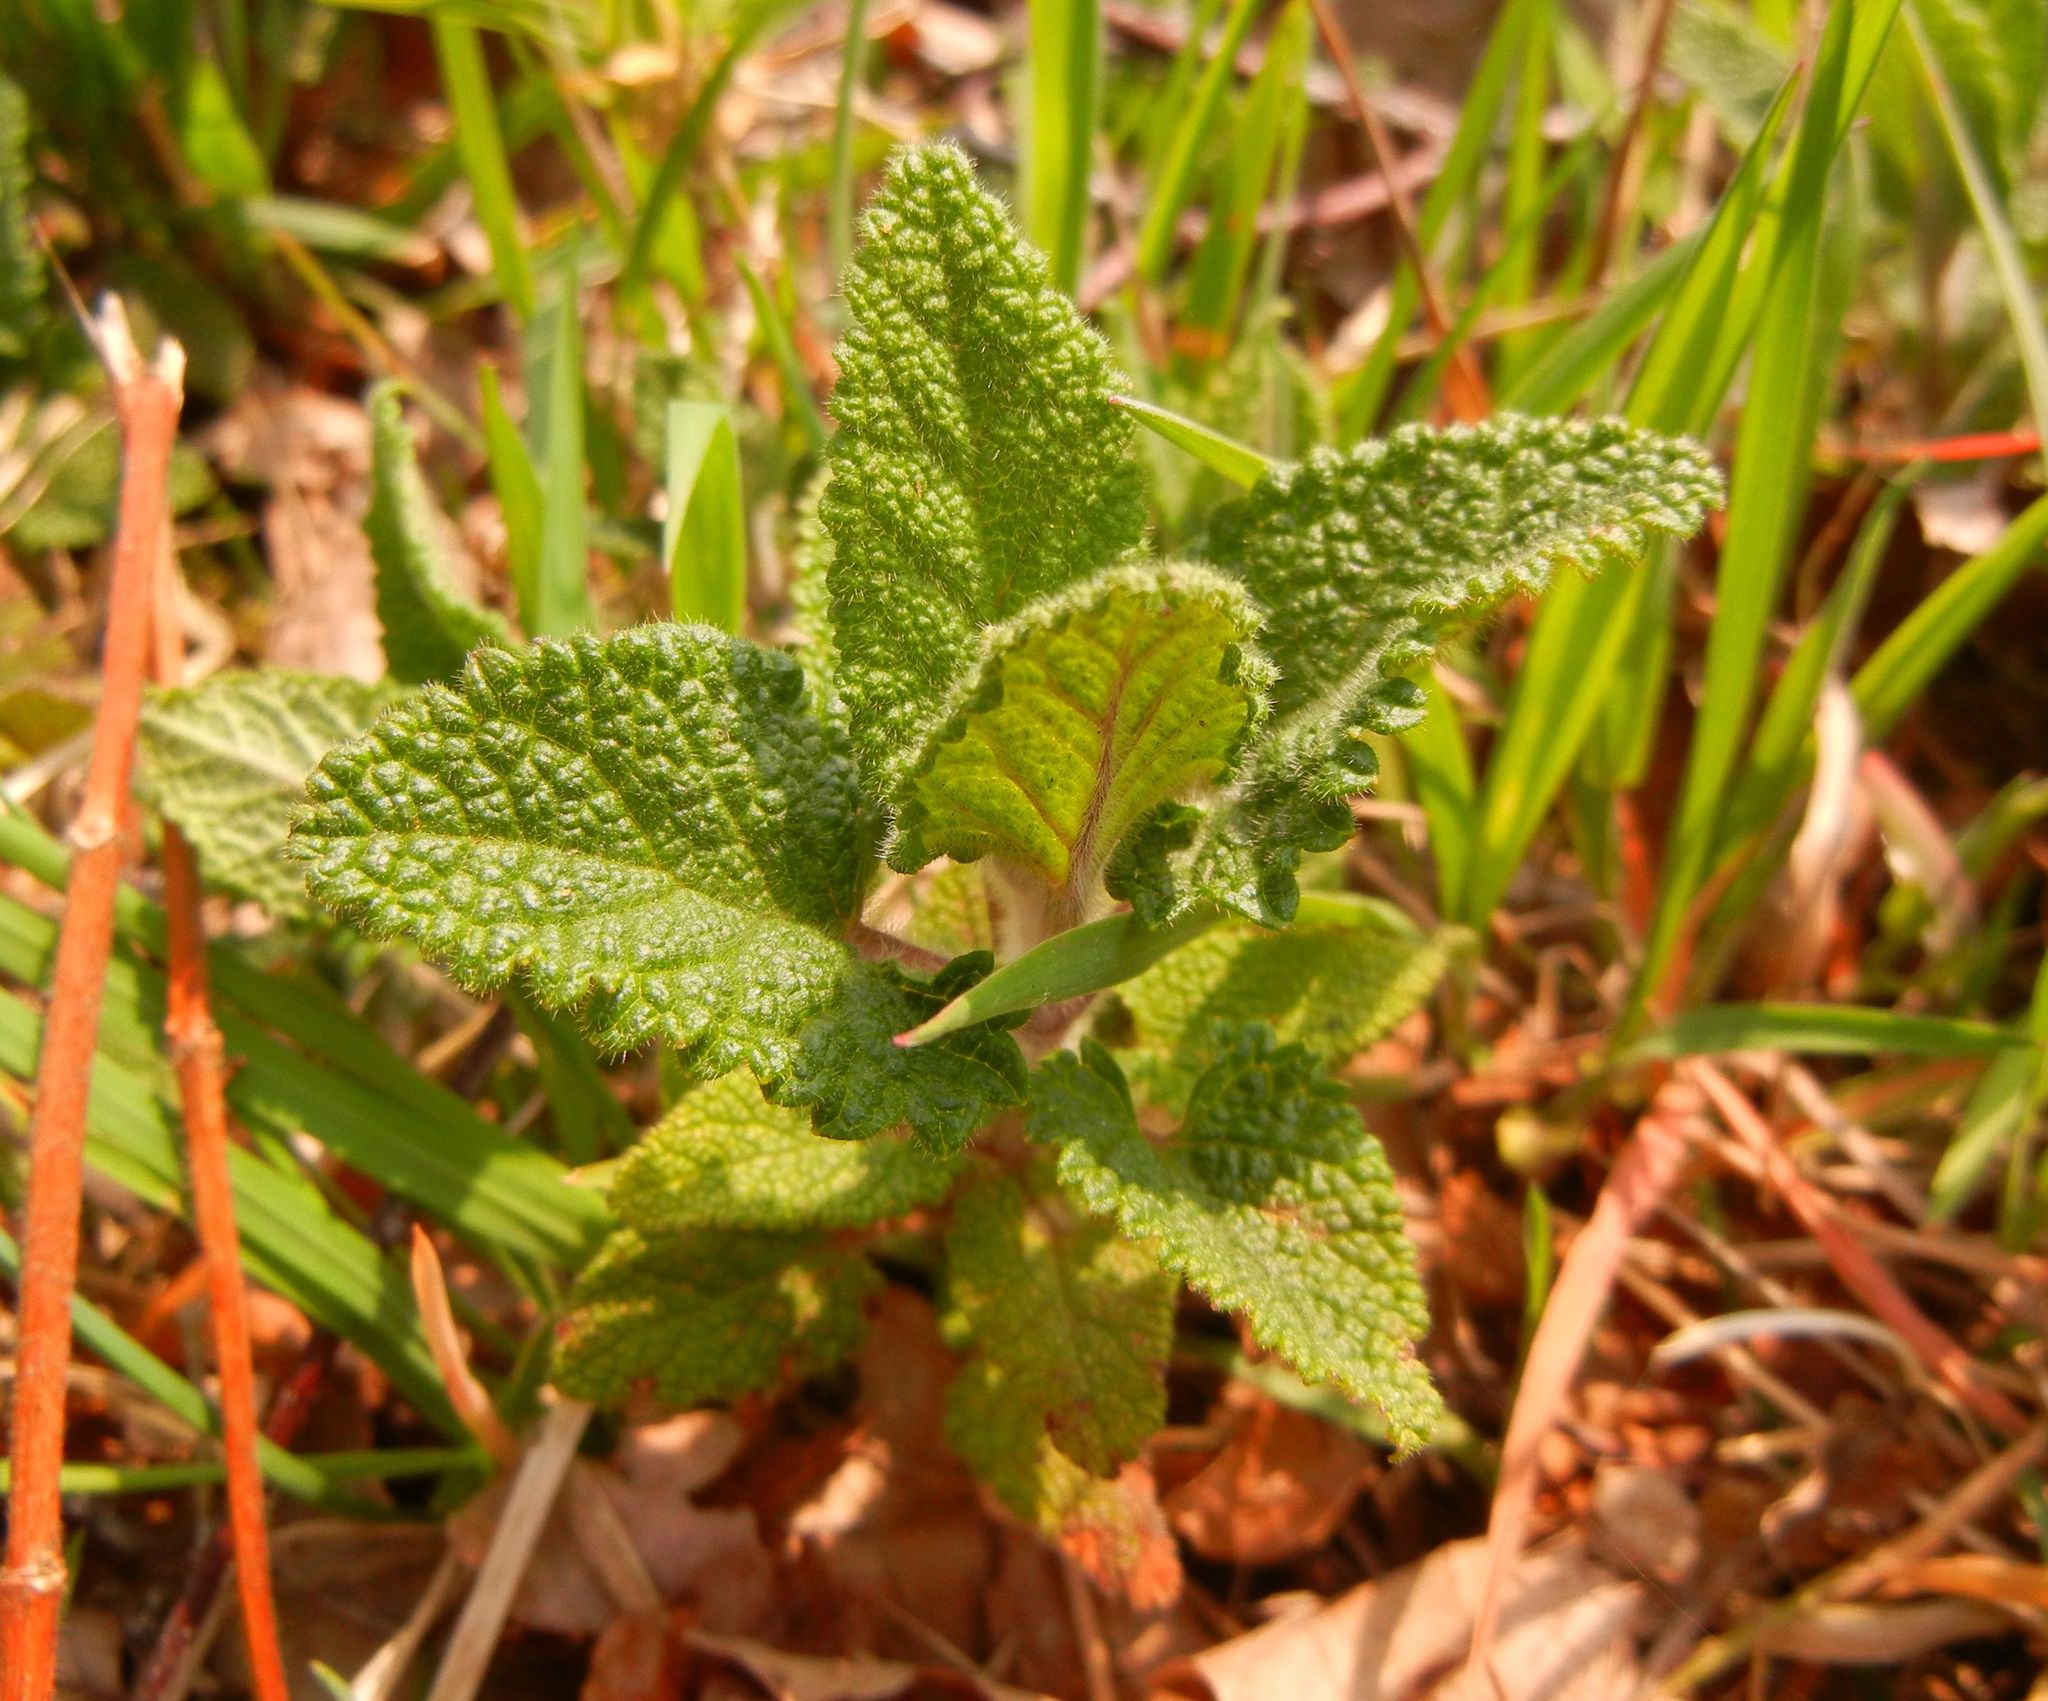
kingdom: Plantae
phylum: Tracheophyta
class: Magnoliopsida
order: Lamiales
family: Lamiaceae
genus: Teucrium
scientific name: Teucrium scorodonia
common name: Woodland germander
